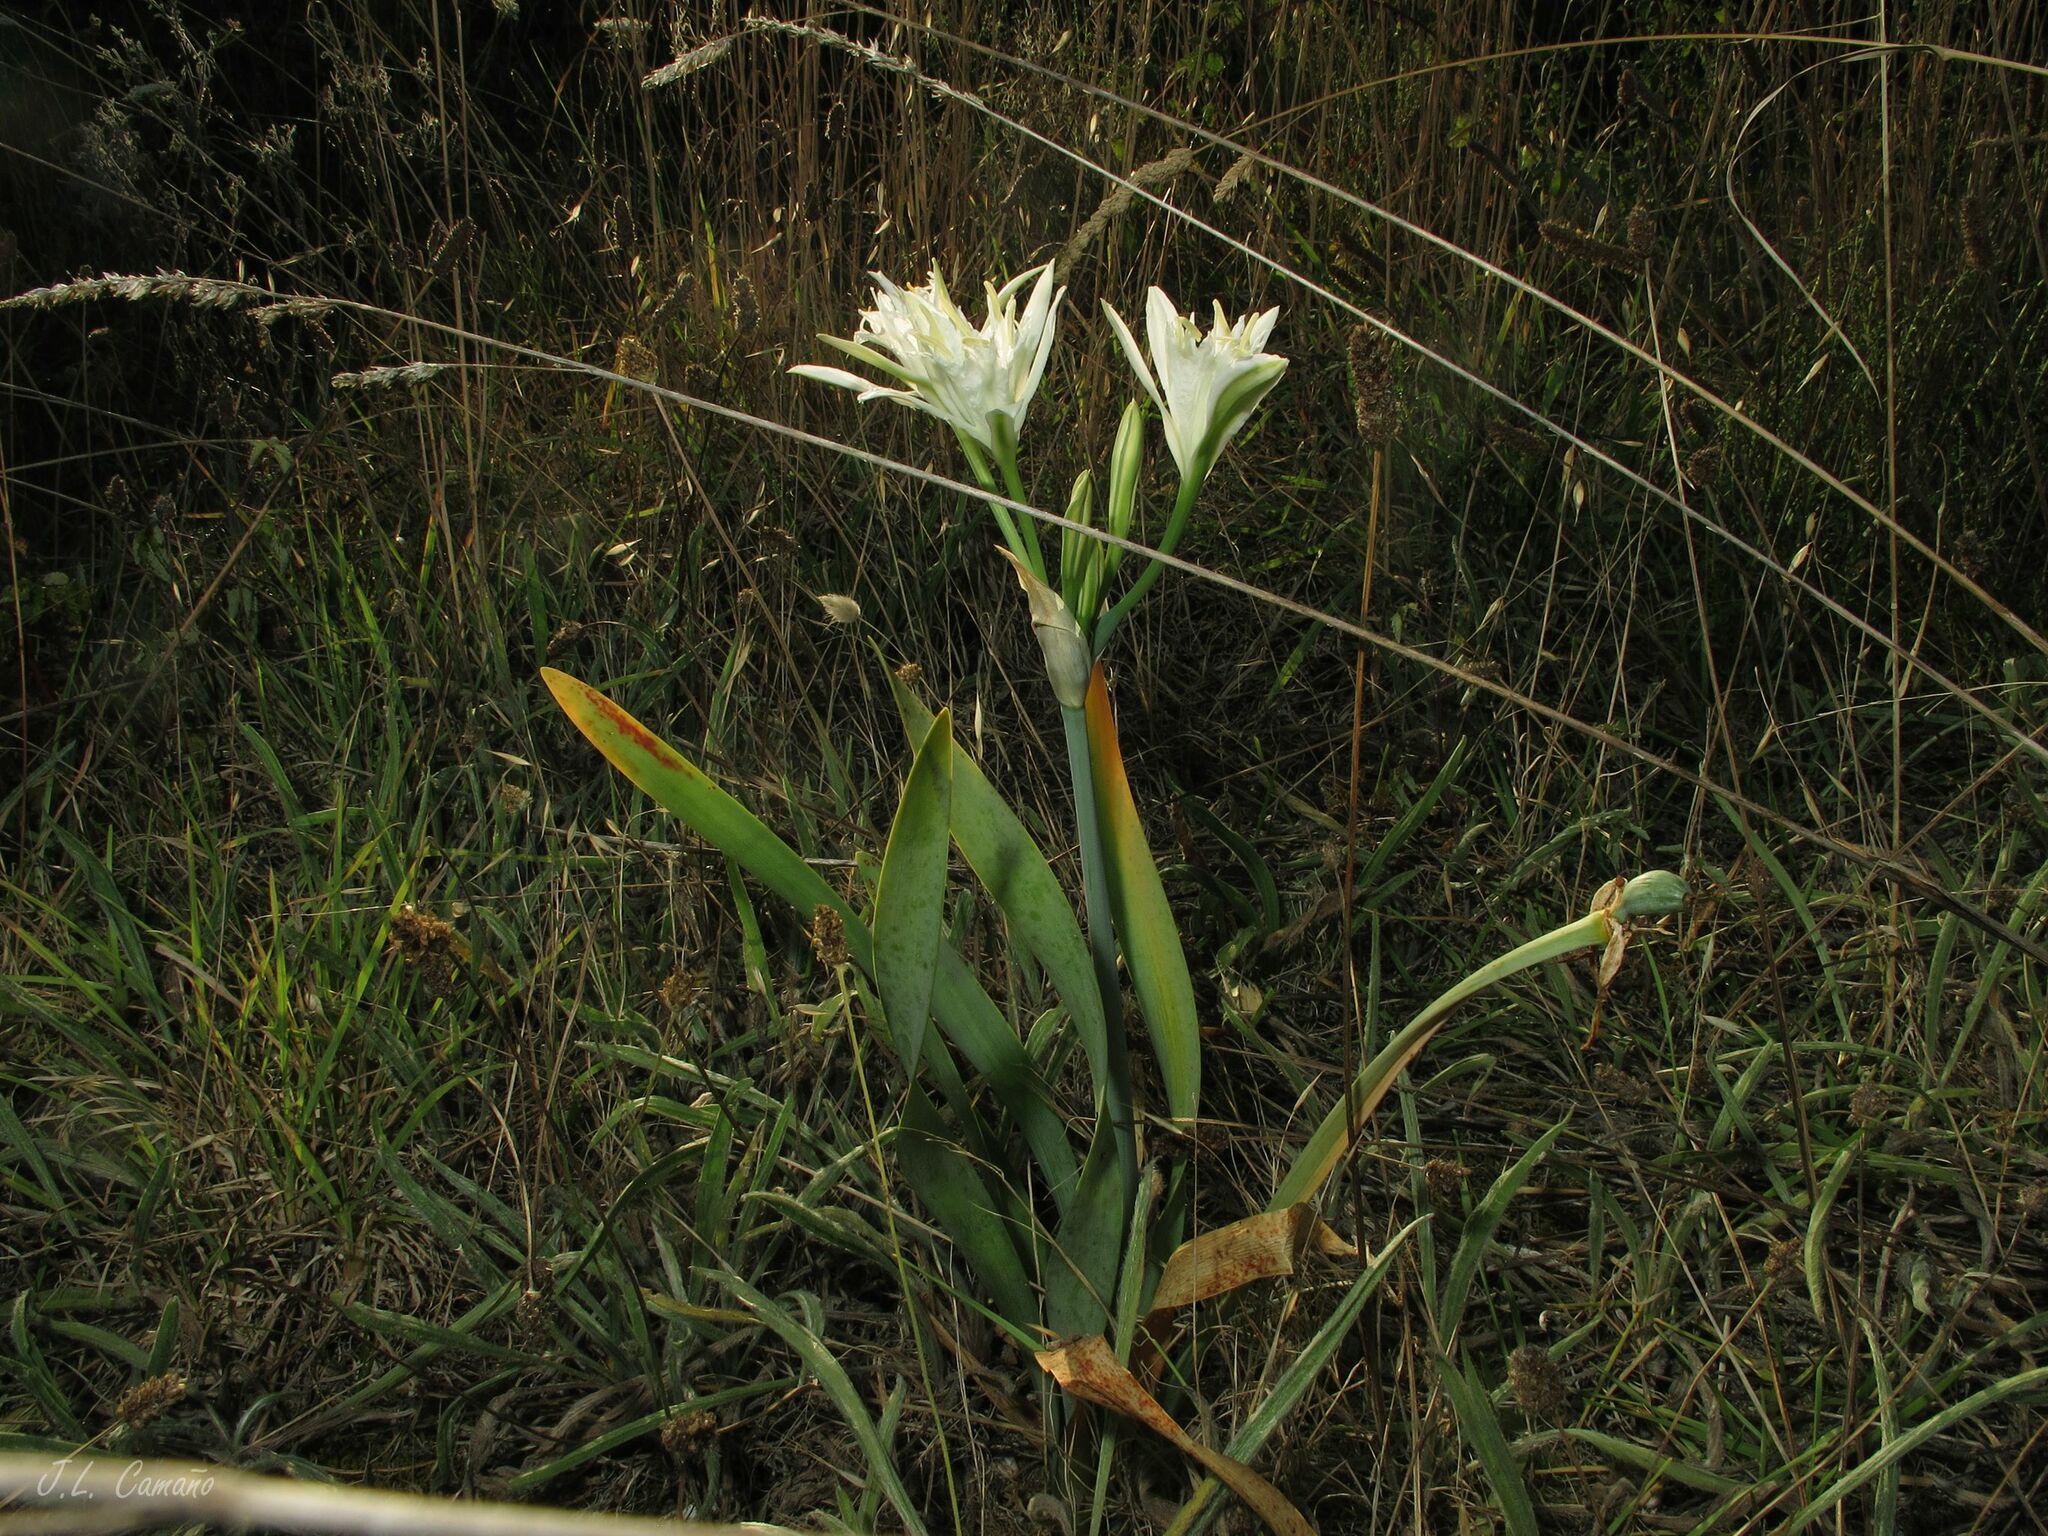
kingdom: Plantae
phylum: Tracheophyta
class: Liliopsida
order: Asparagales
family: Amaryllidaceae
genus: Pancratium
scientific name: Pancratium maritimum
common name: Sea-daffodil
